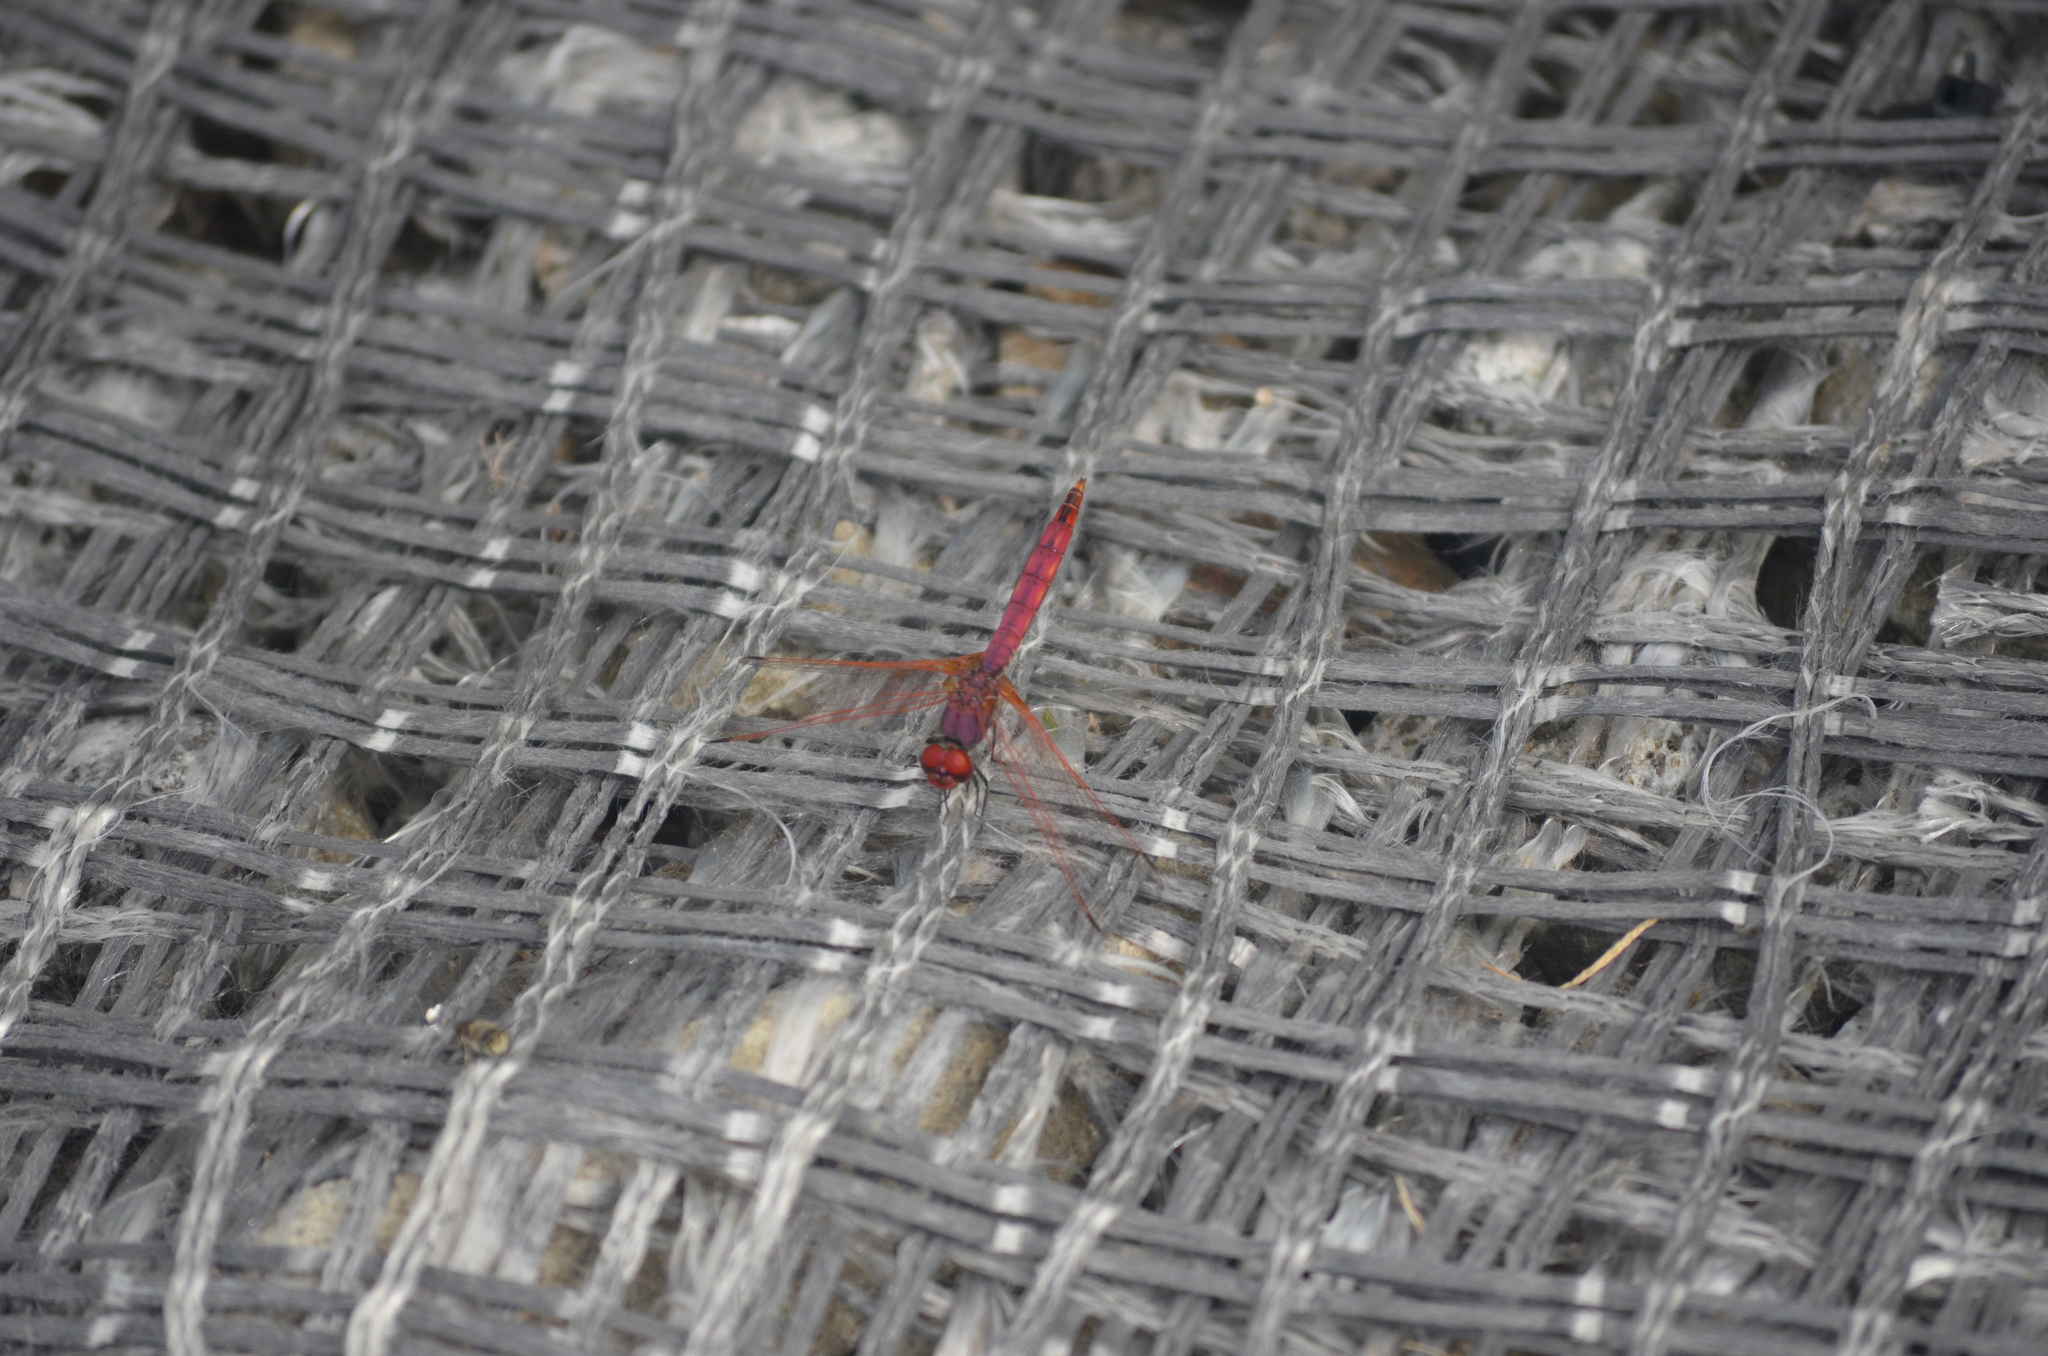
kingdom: Animalia
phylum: Arthropoda
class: Insecta
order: Odonata
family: Libellulidae
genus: Trithemis
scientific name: Trithemis annulata
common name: Violet dropwing
